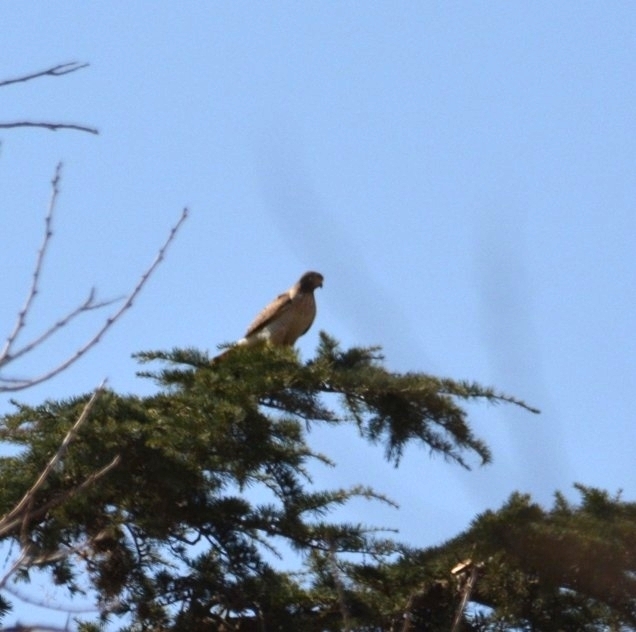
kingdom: Animalia
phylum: Chordata
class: Aves
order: Accipitriformes
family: Accipitridae
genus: Rupornis
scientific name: Rupornis magnirostris
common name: Roadside hawk
